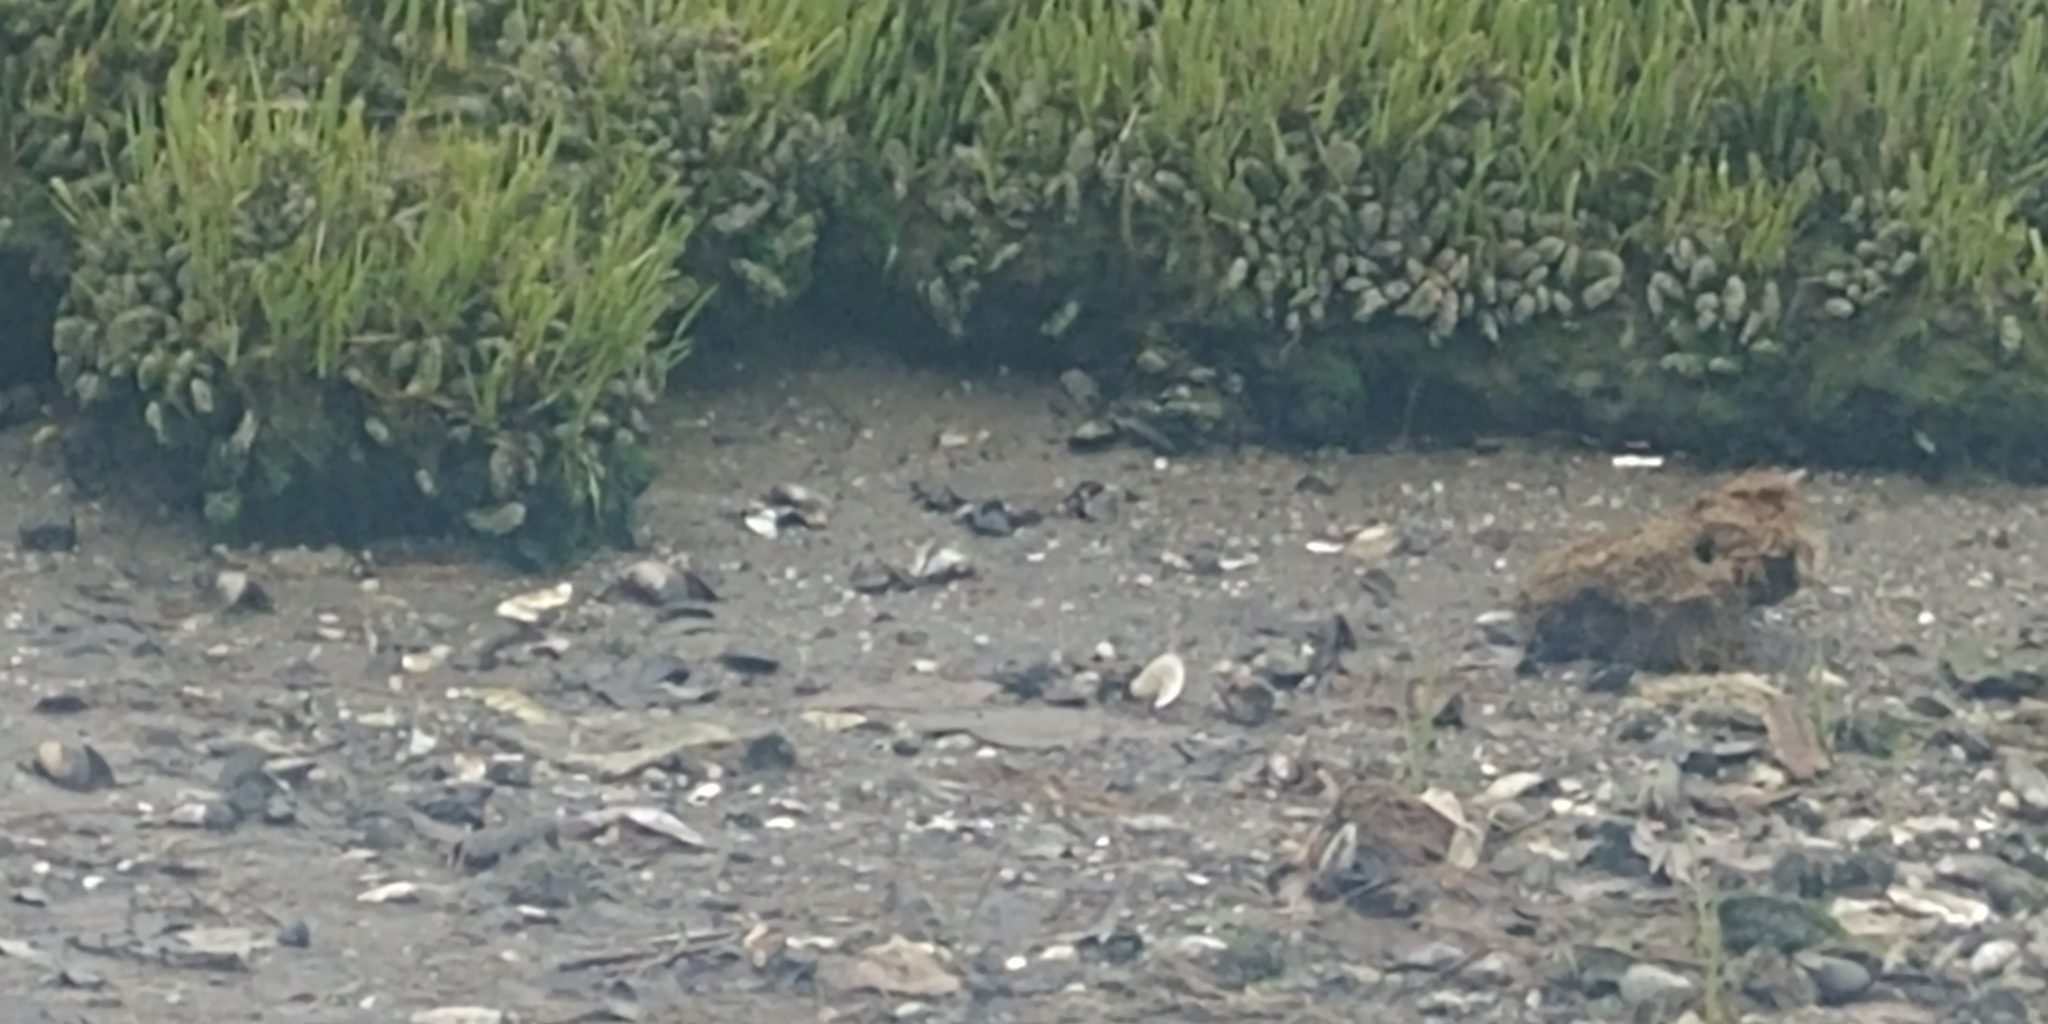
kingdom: Animalia
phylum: Mollusca
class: Bivalvia
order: Mytilida
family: Mytilidae
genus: Geukensia
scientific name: Geukensia demissa
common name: Ribbed mussel
